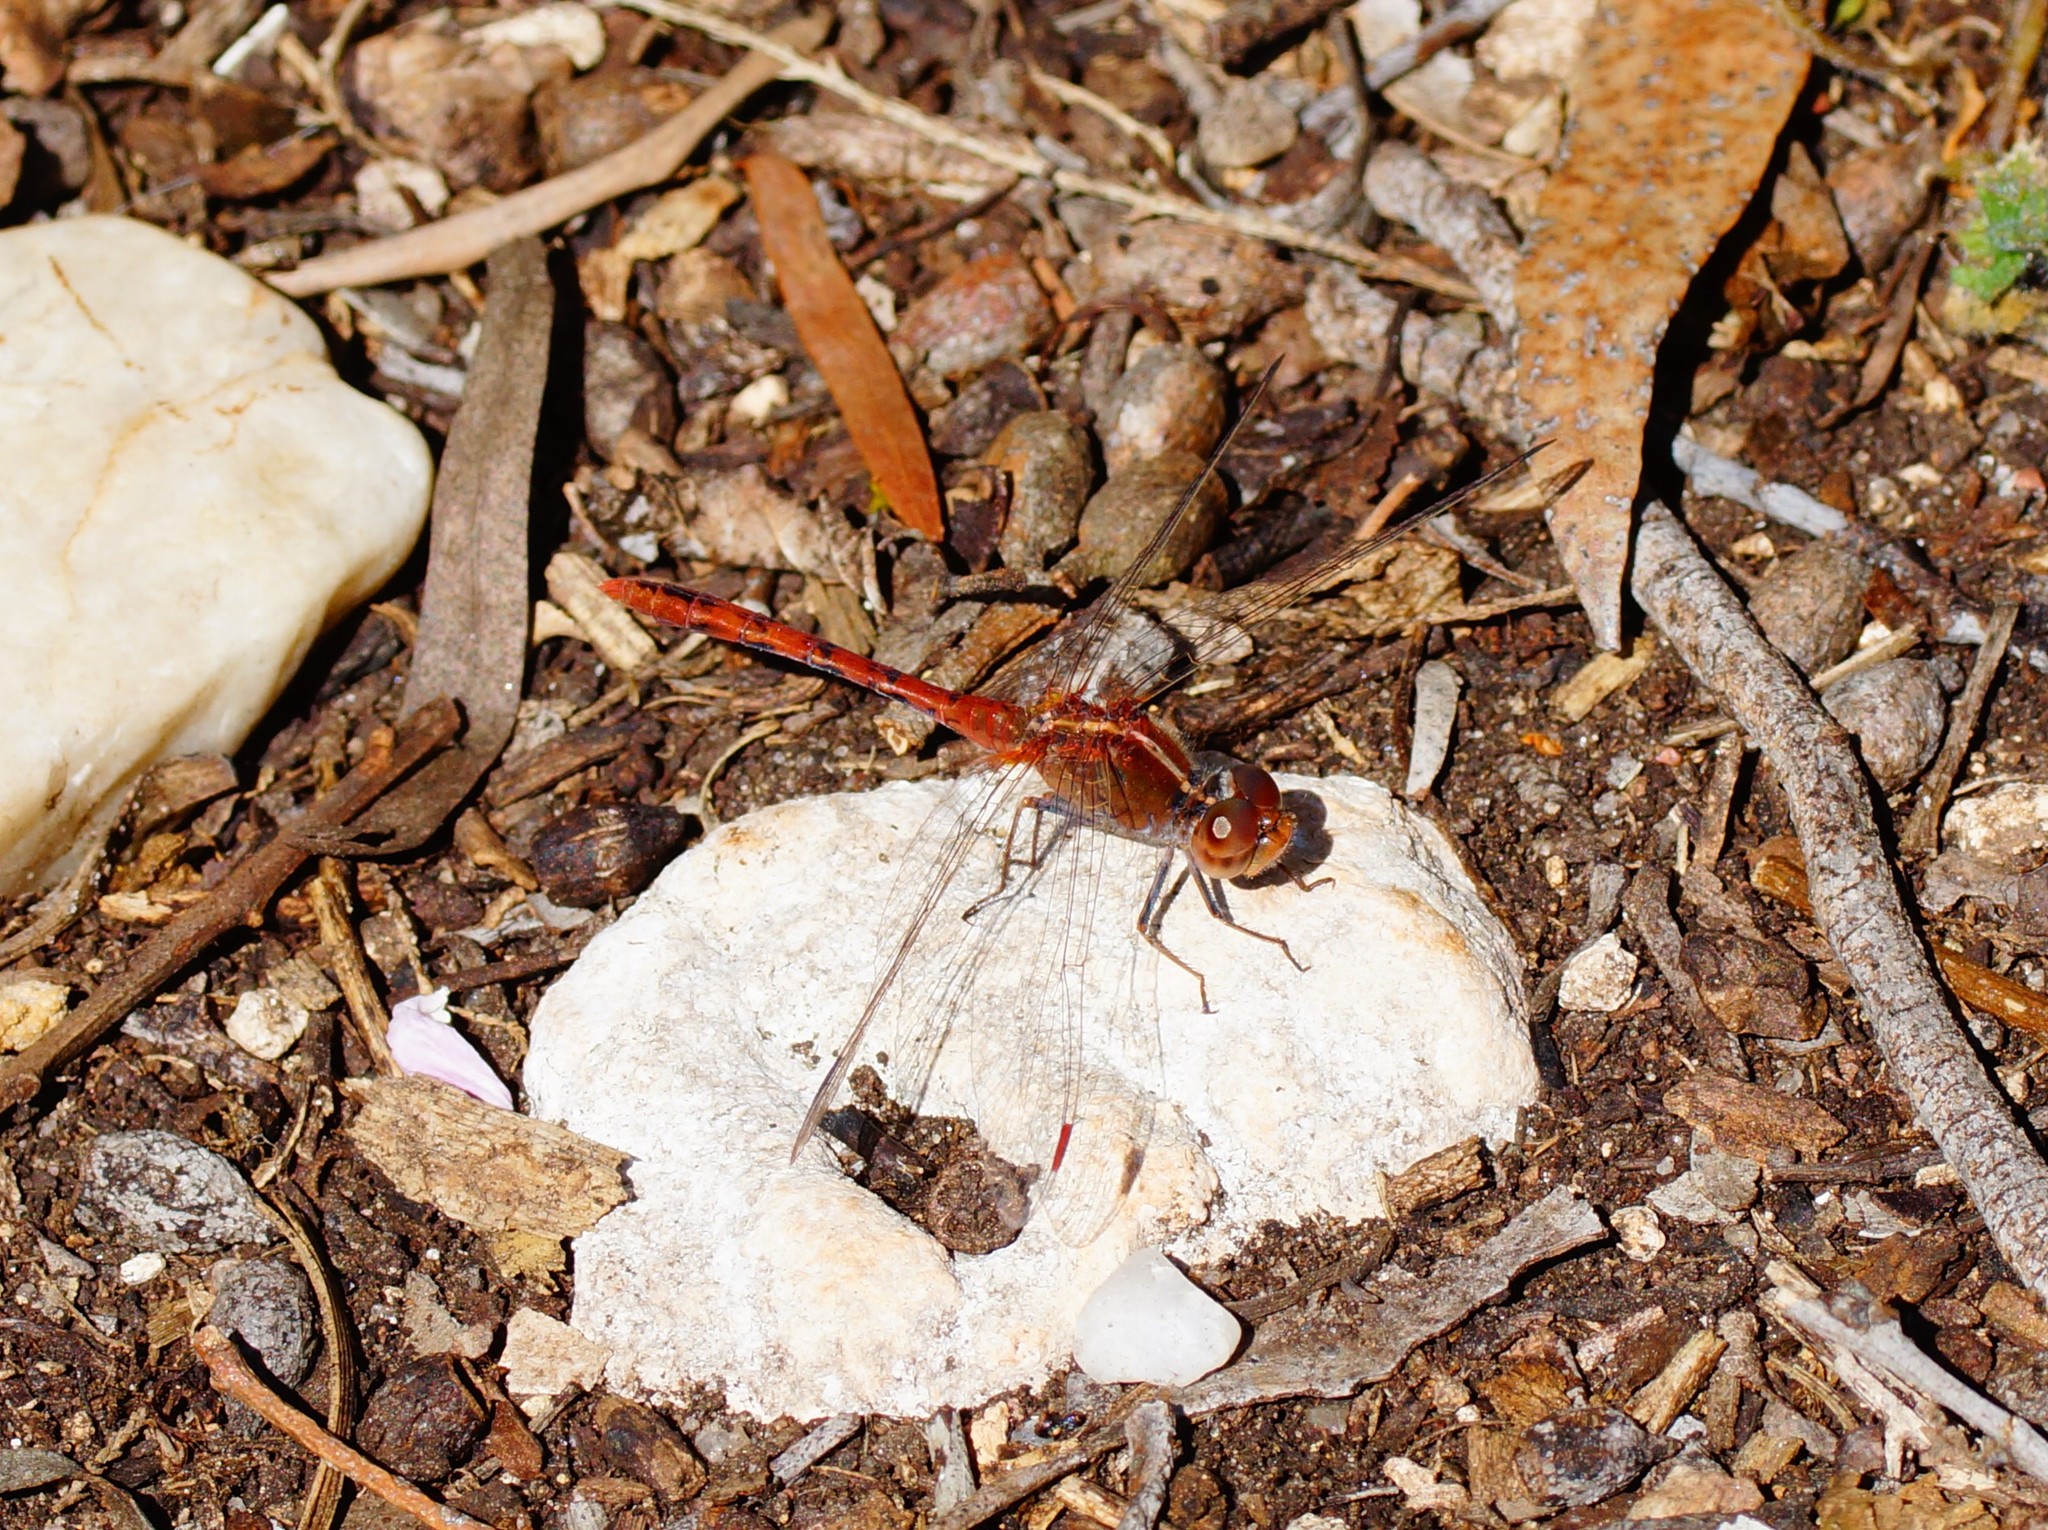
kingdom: Animalia
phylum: Arthropoda
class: Insecta
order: Odonata
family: Libellulidae
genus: Diplacodes
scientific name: Diplacodes bipunctata
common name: Red percher dragonfly
